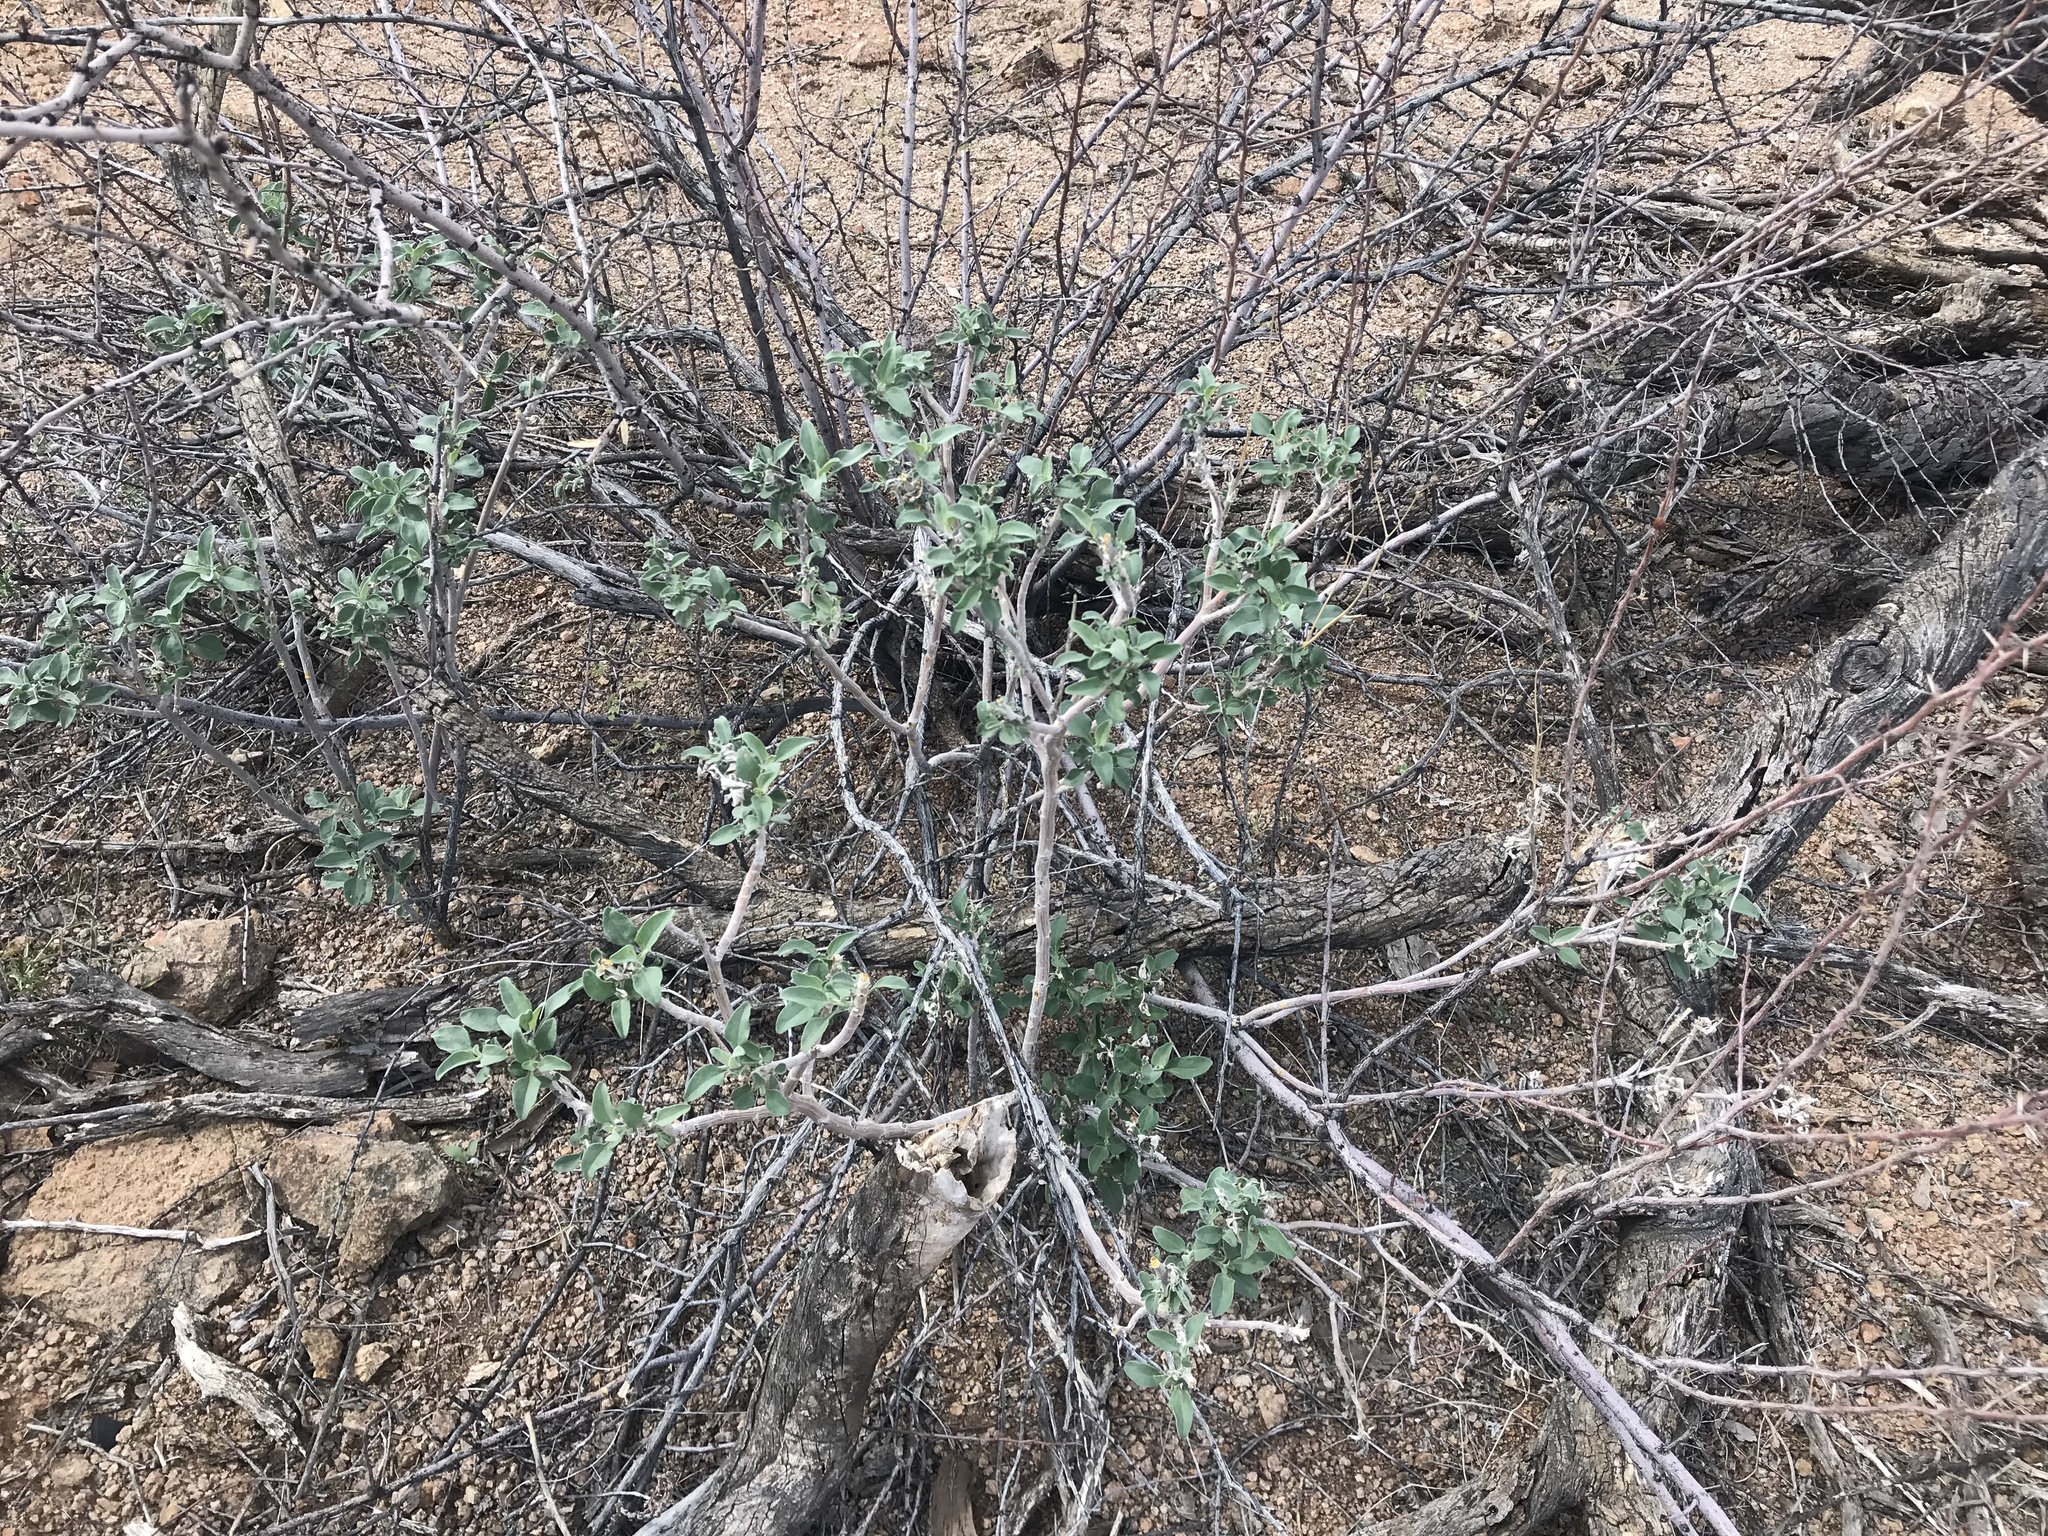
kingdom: Plantae
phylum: Tracheophyta
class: Magnoliopsida
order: Asterales
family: Asteraceae
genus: Encelia
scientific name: Encelia farinosa
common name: Brittlebush
